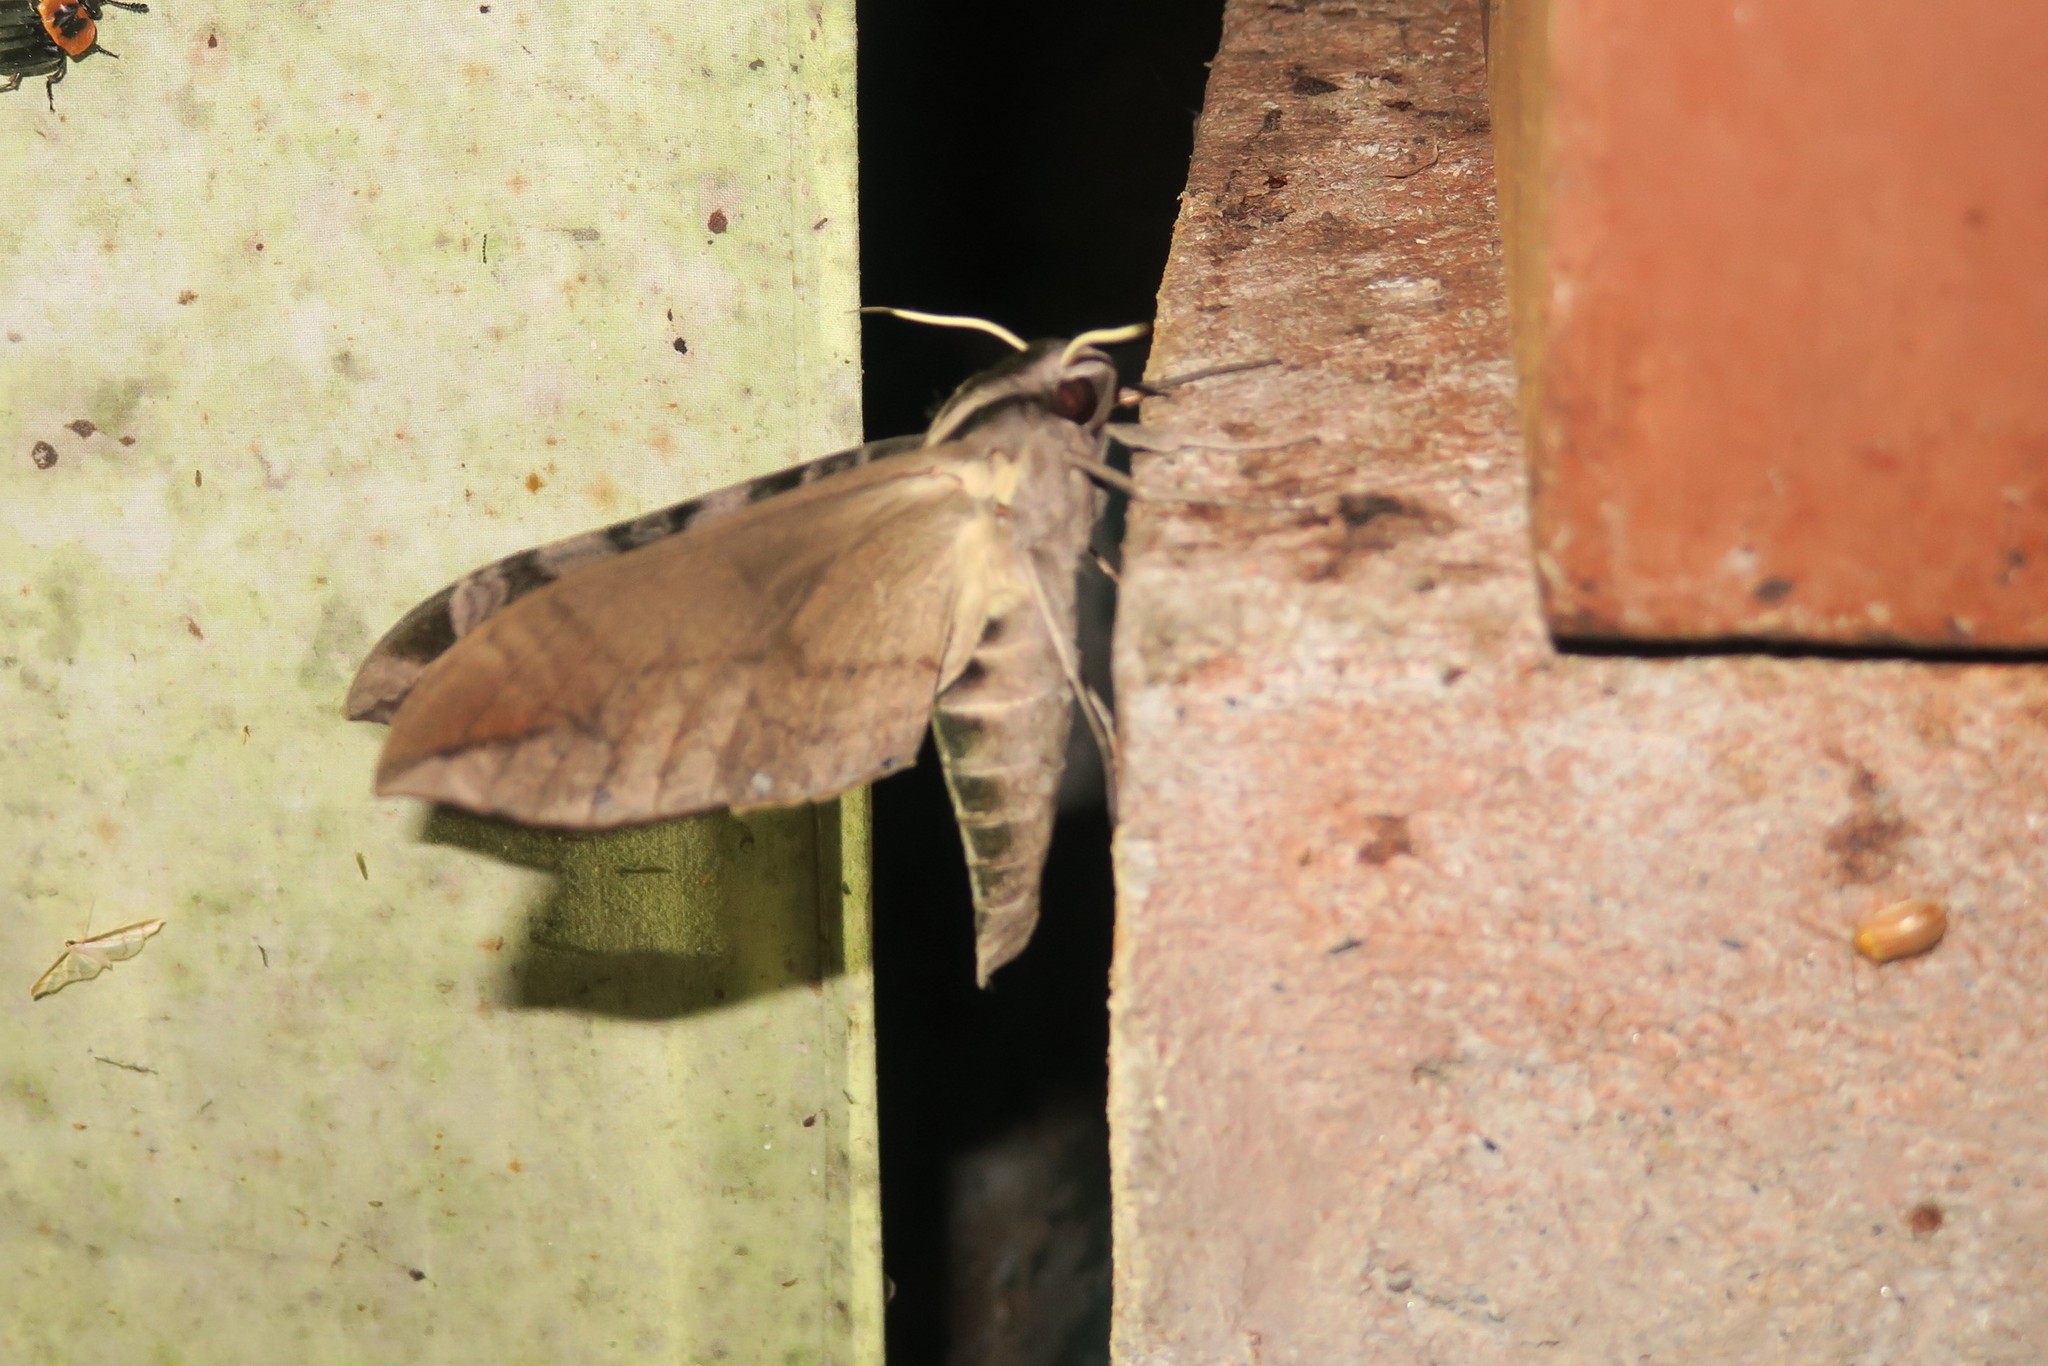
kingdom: Animalia
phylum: Arthropoda
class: Insecta
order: Lepidoptera
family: Sphingidae
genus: Eumorpha
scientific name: Eumorpha cissi
